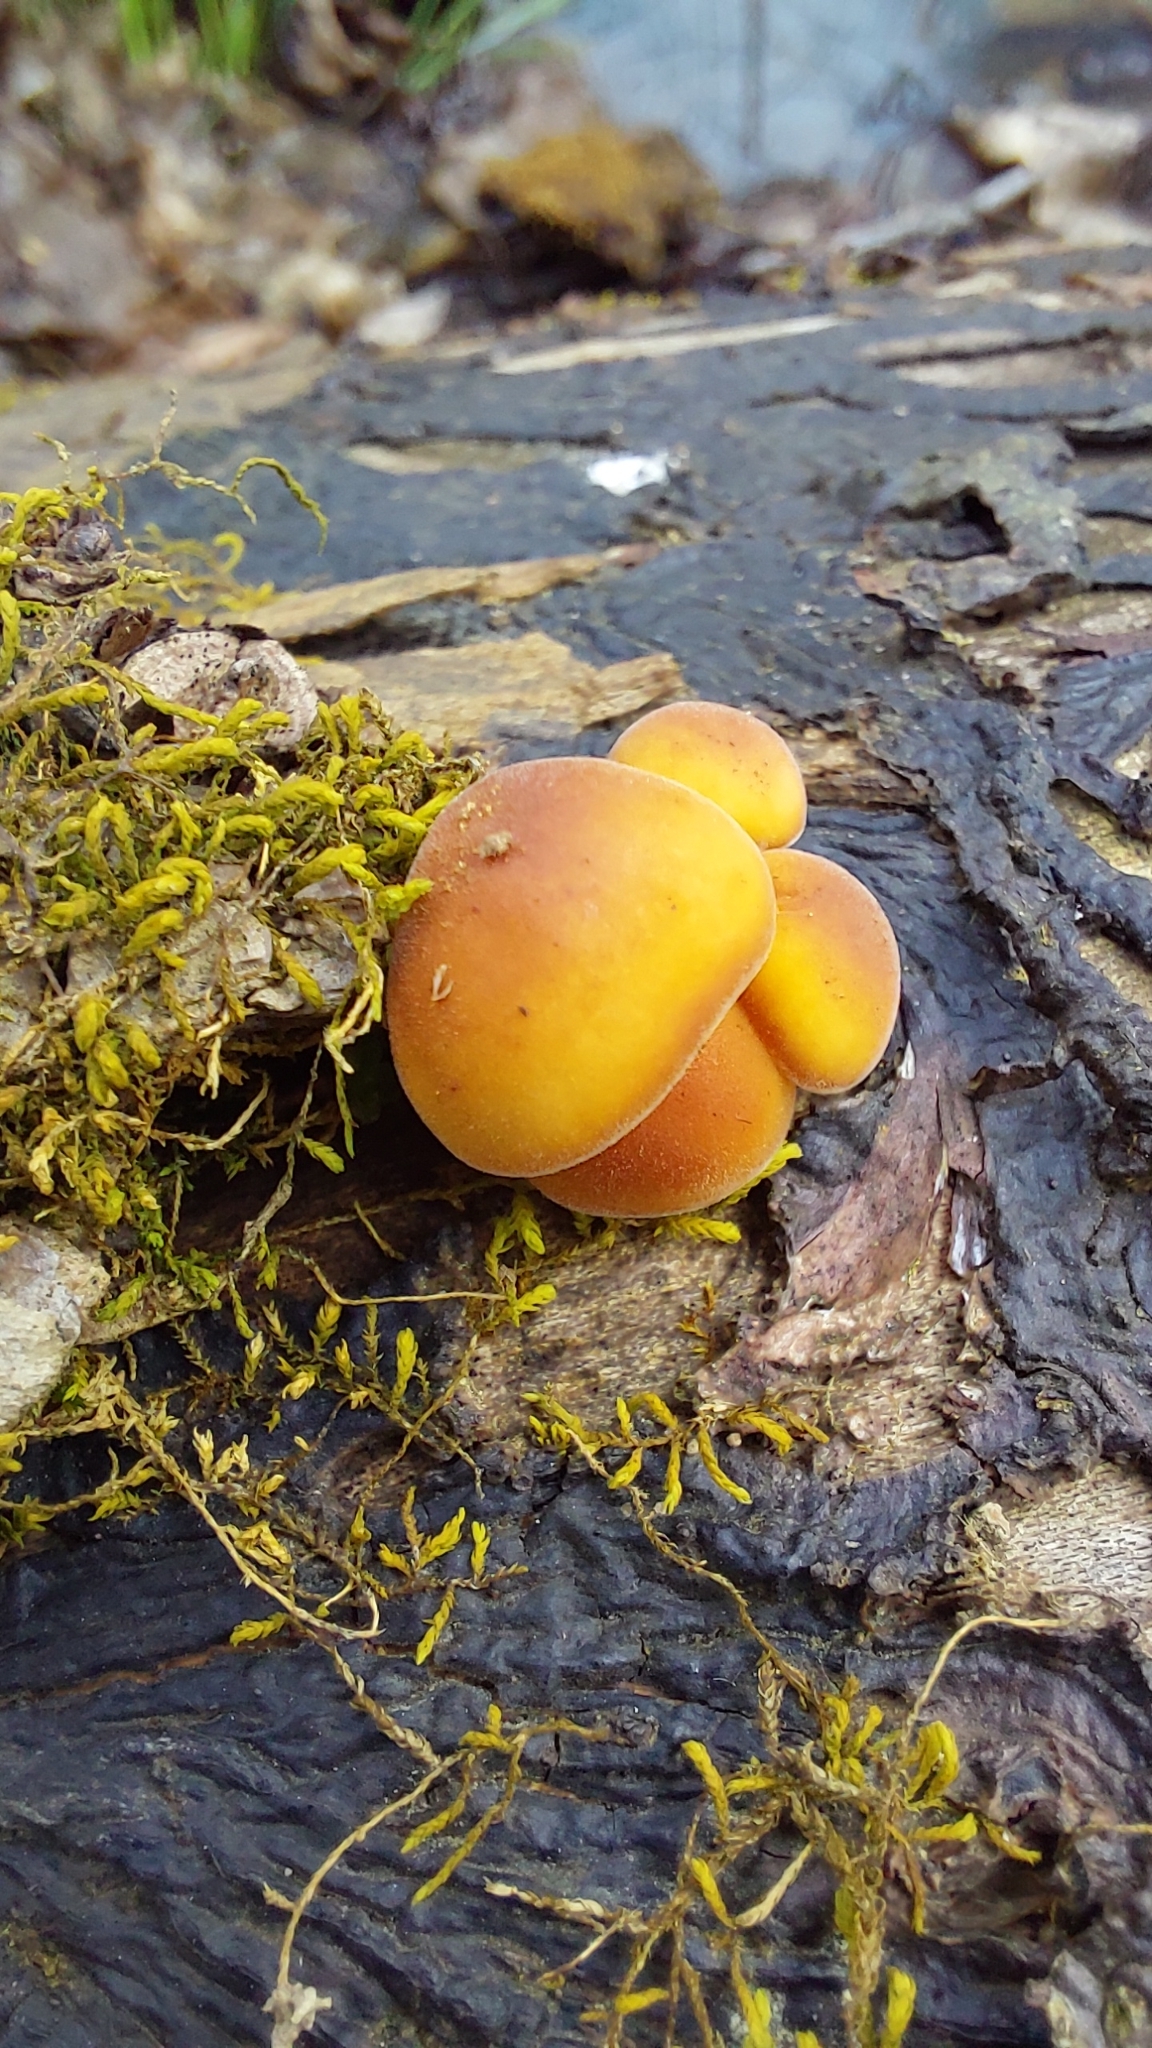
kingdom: Fungi
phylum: Basidiomycota
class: Agaricomycetes
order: Agaricales
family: Physalacriaceae
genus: Flammulina
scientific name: Flammulina
